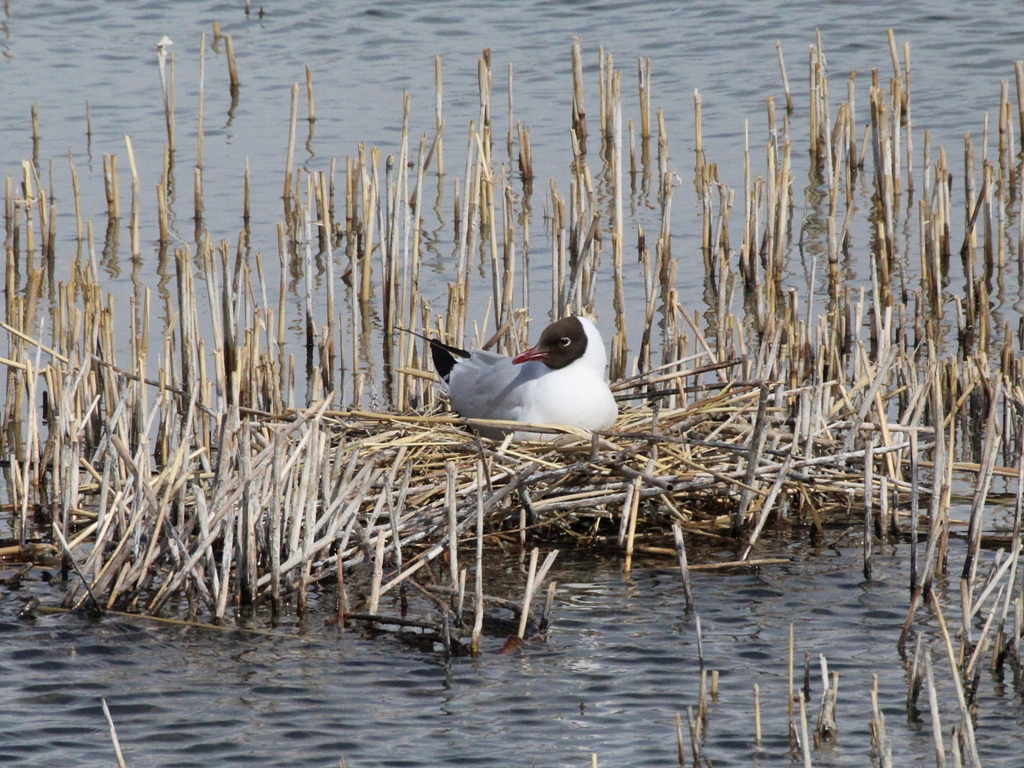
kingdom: Animalia
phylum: Chordata
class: Aves
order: Charadriiformes
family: Laridae
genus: Chroicocephalus
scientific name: Chroicocephalus ridibundus
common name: Black-headed gull
